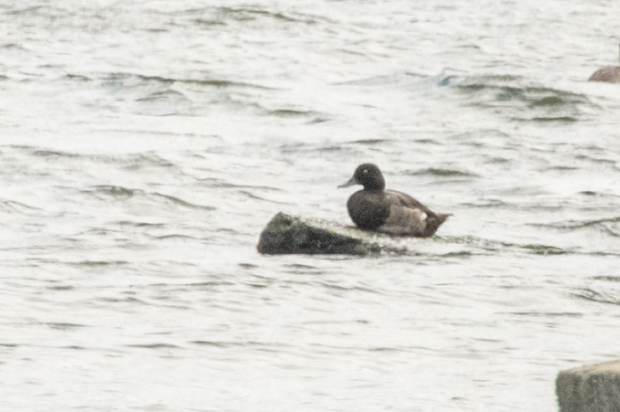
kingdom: Animalia
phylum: Chordata
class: Aves
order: Anseriformes
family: Anatidae
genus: Aythya
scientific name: Aythya marila
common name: Greater scaup
